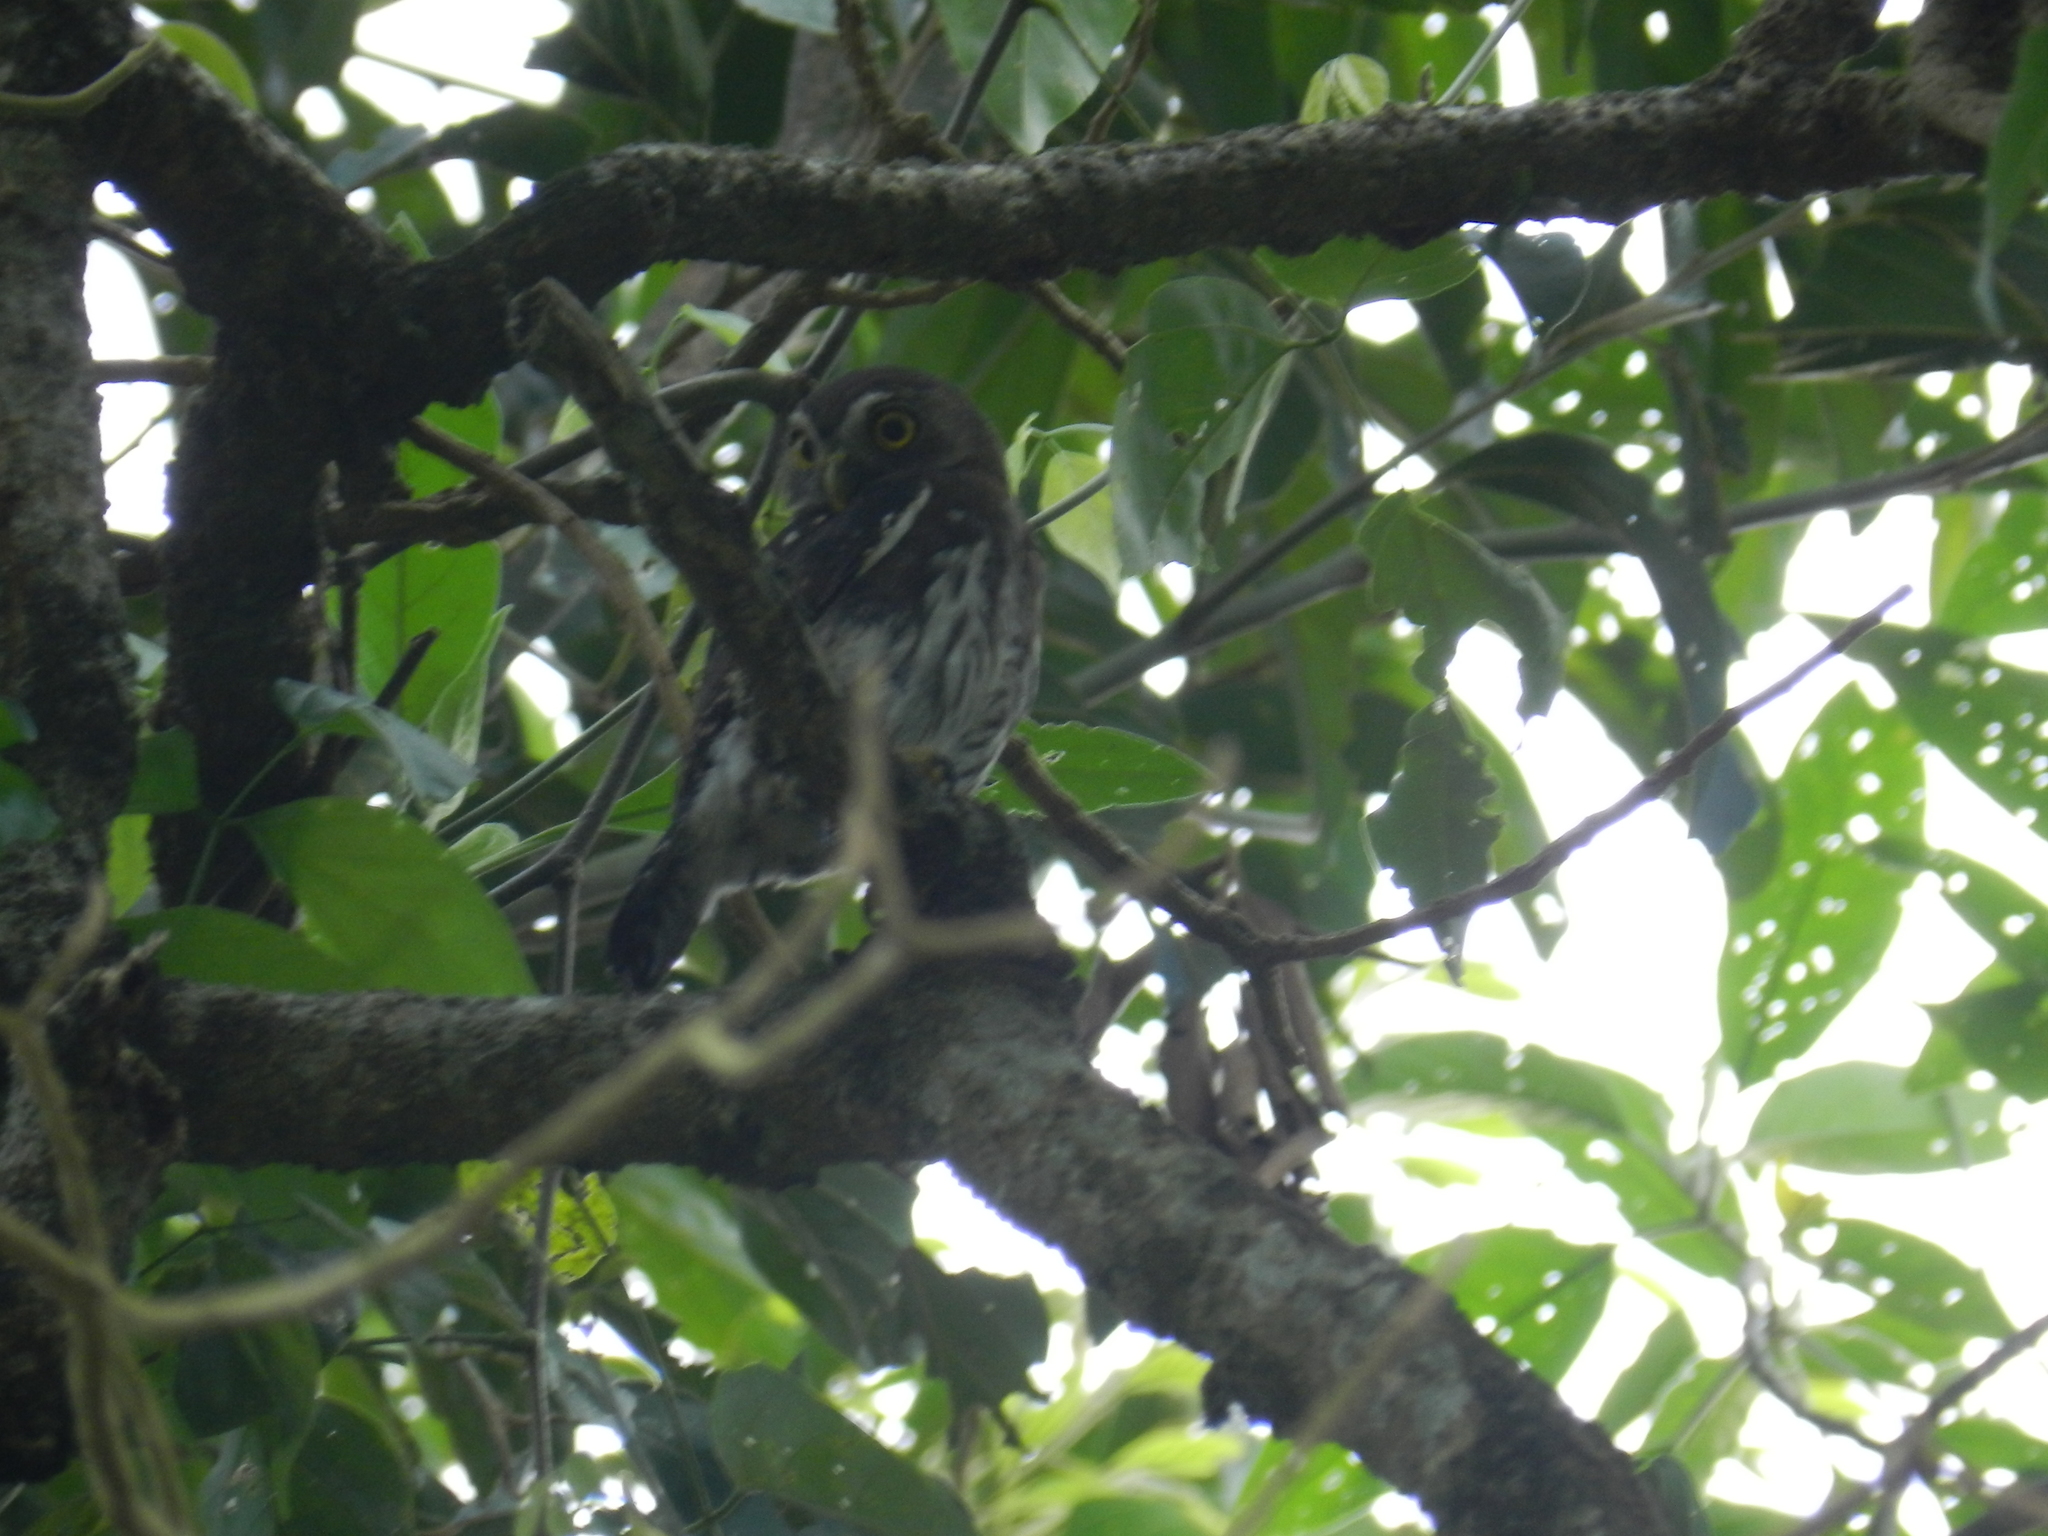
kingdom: Animalia
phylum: Chordata
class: Aves
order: Strigiformes
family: Strigidae
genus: Glaucidium
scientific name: Glaucidium brasilianum
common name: Ferruginous pygmy-owl
